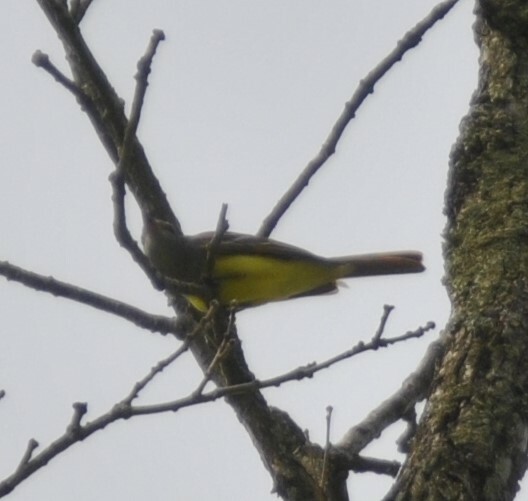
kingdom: Animalia
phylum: Chordata
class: Aves
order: Passeriformes
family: Tyrannidae
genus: Myiarchus
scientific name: Myiarchus crinitus
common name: Great crested flycatcher
